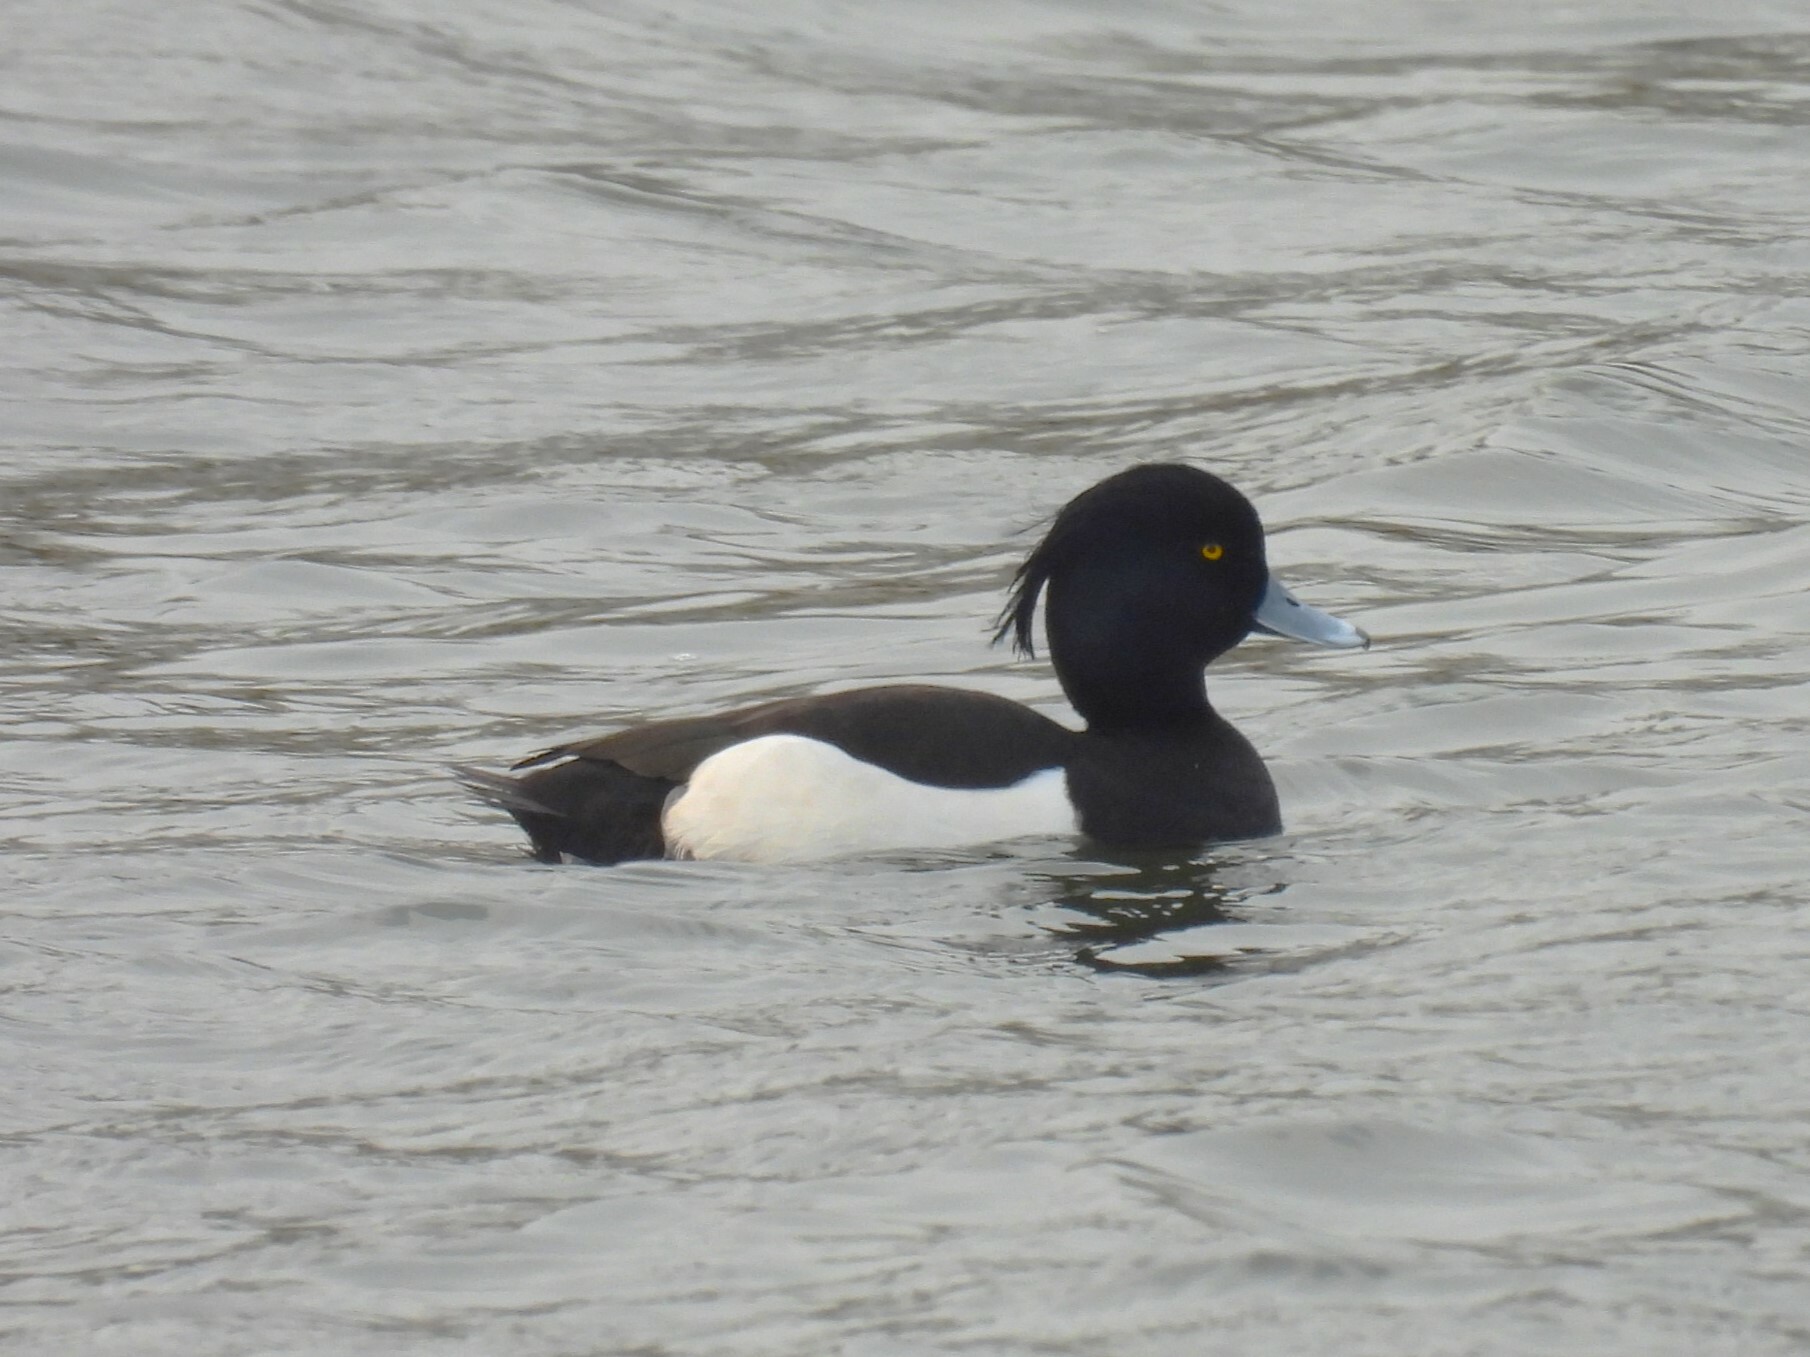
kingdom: Animalia
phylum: Chordata
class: Aves
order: Anseriformes
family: Anatidae
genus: Aythya
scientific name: Aythya fuligula
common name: Tufted duck
